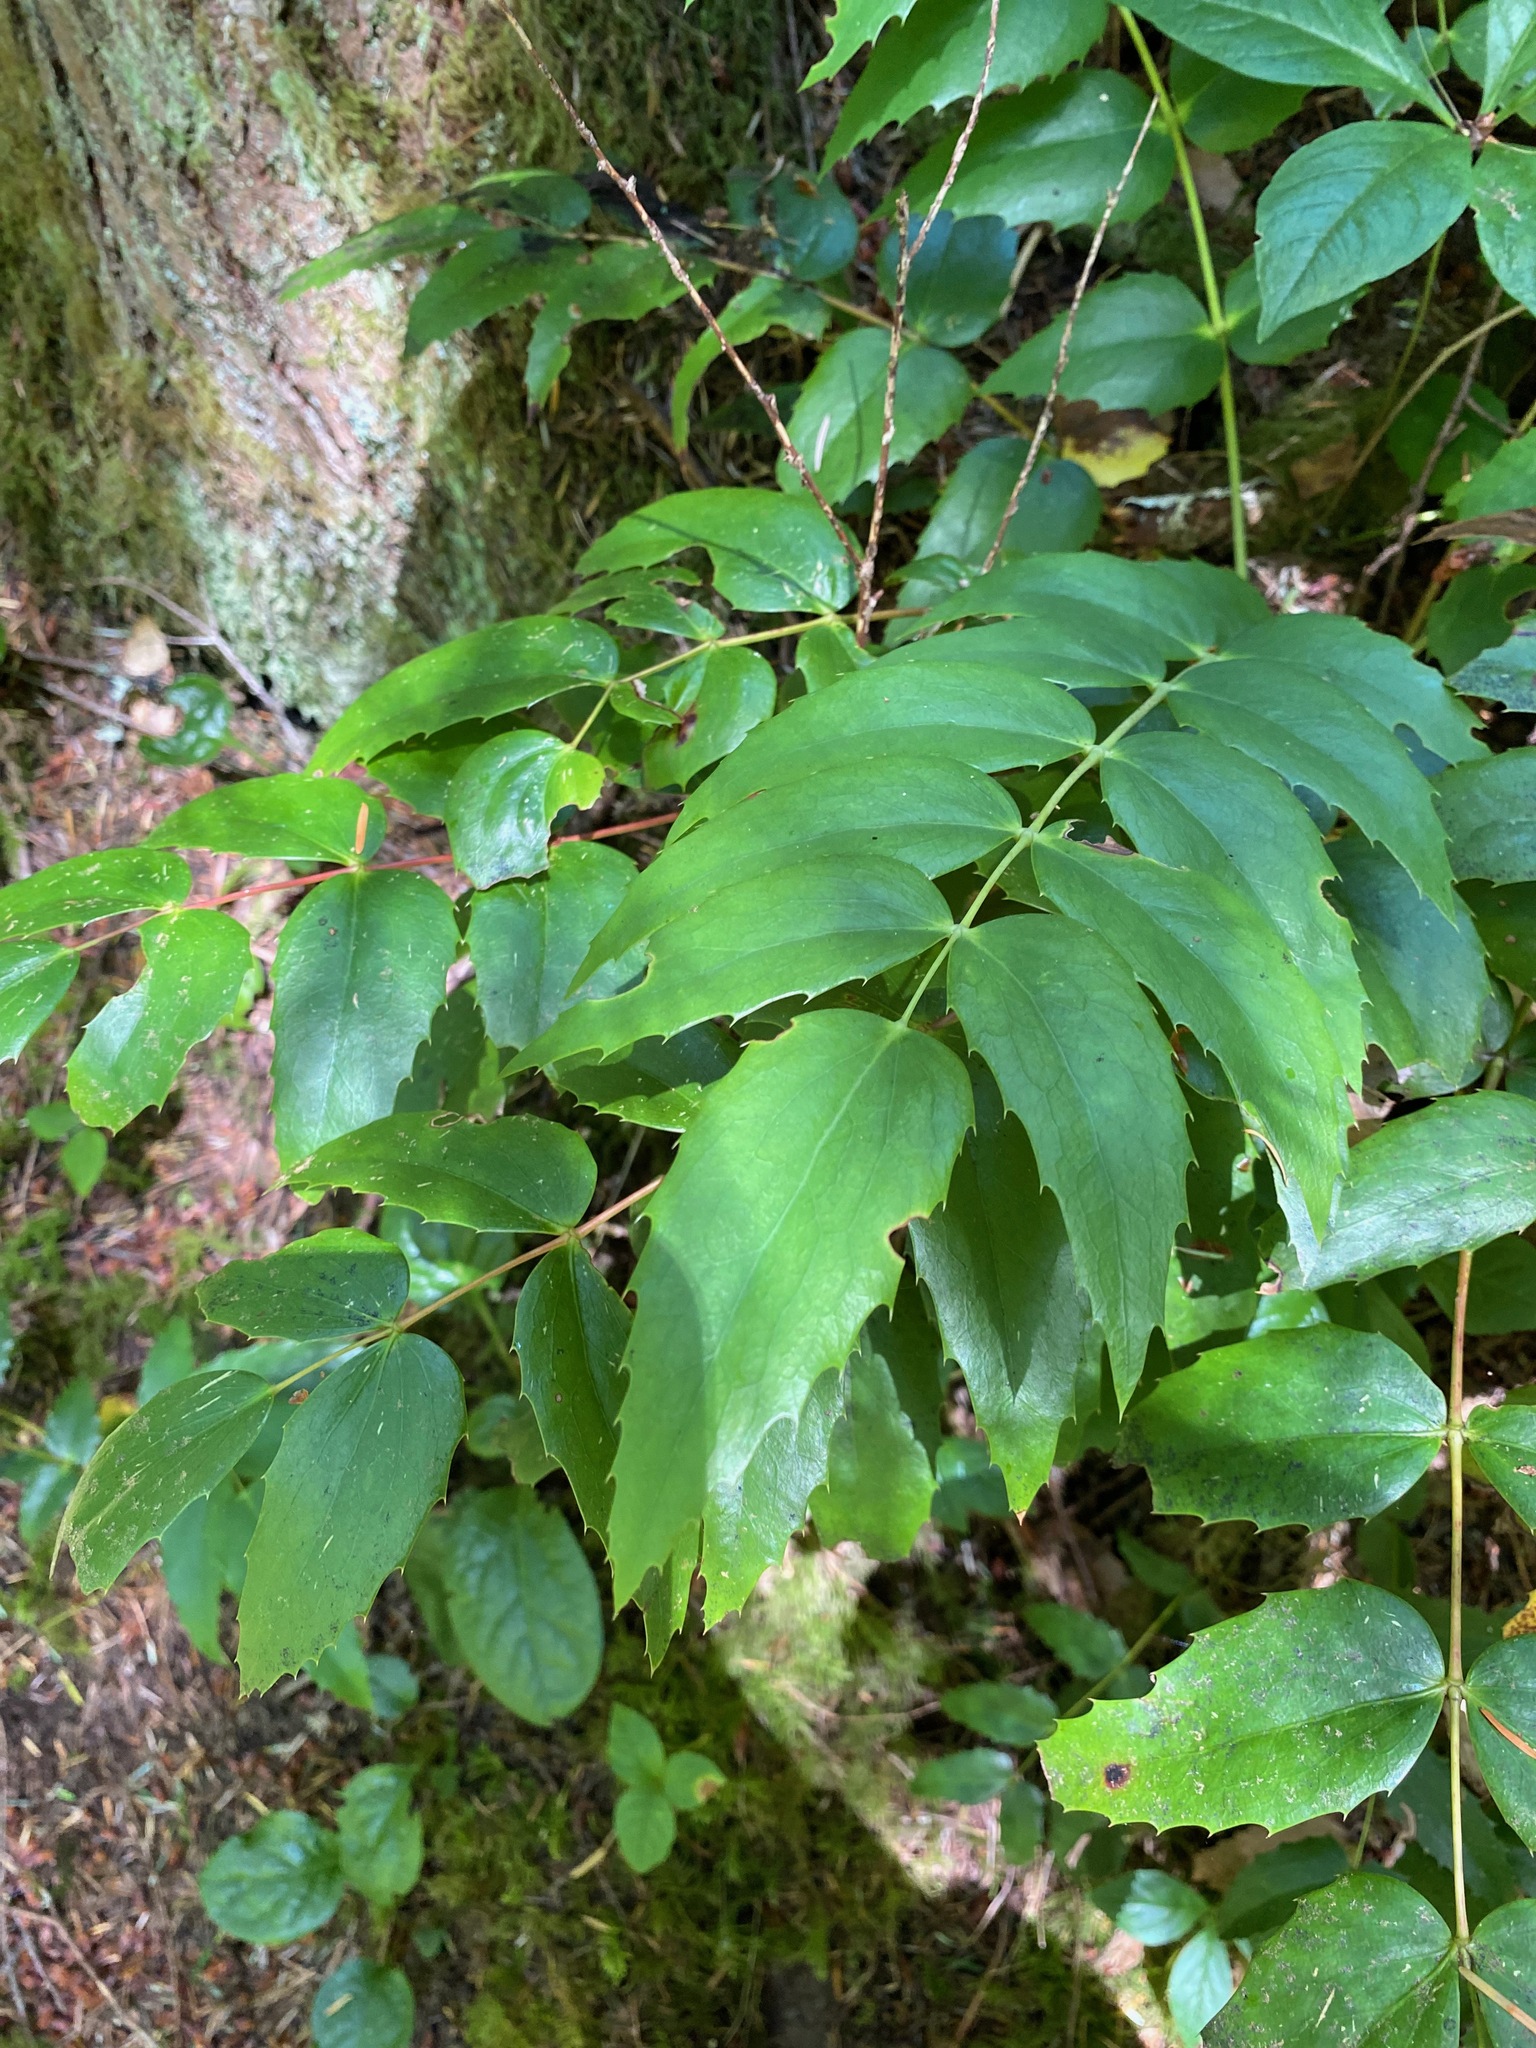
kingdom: Plantae
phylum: Tracheophyta
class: Magnoliopsida
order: Ranunculales
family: Berberidaceae
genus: Mahonia
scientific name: Mahonia nervosa
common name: Cascade oregon-grape
